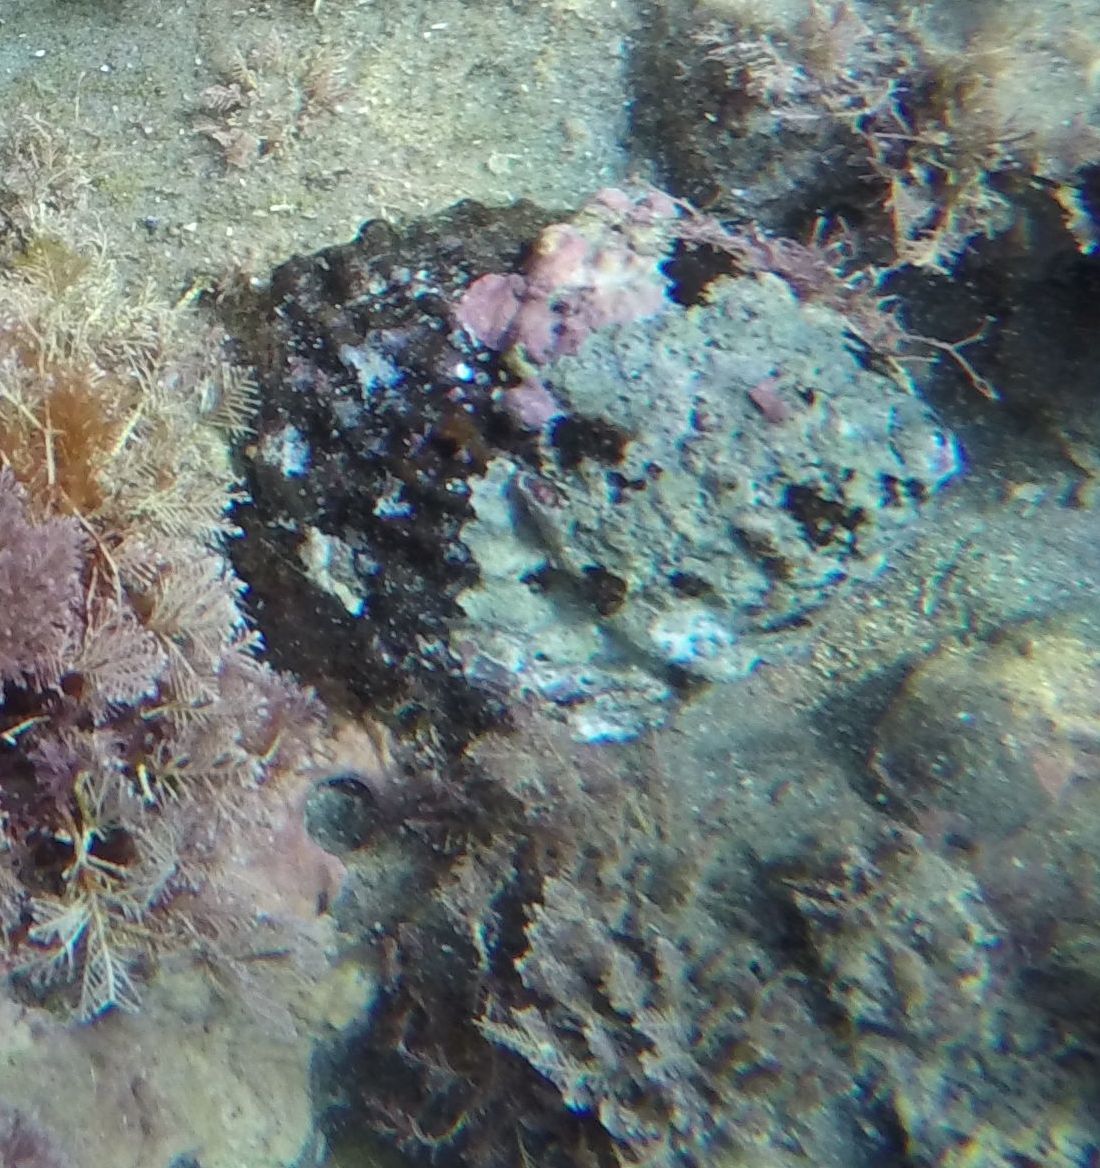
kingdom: Animalia
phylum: Mollusca
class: Gastropoda
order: Trochida
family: Turbinidae
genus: Megastraea
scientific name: Megastraea undosa
